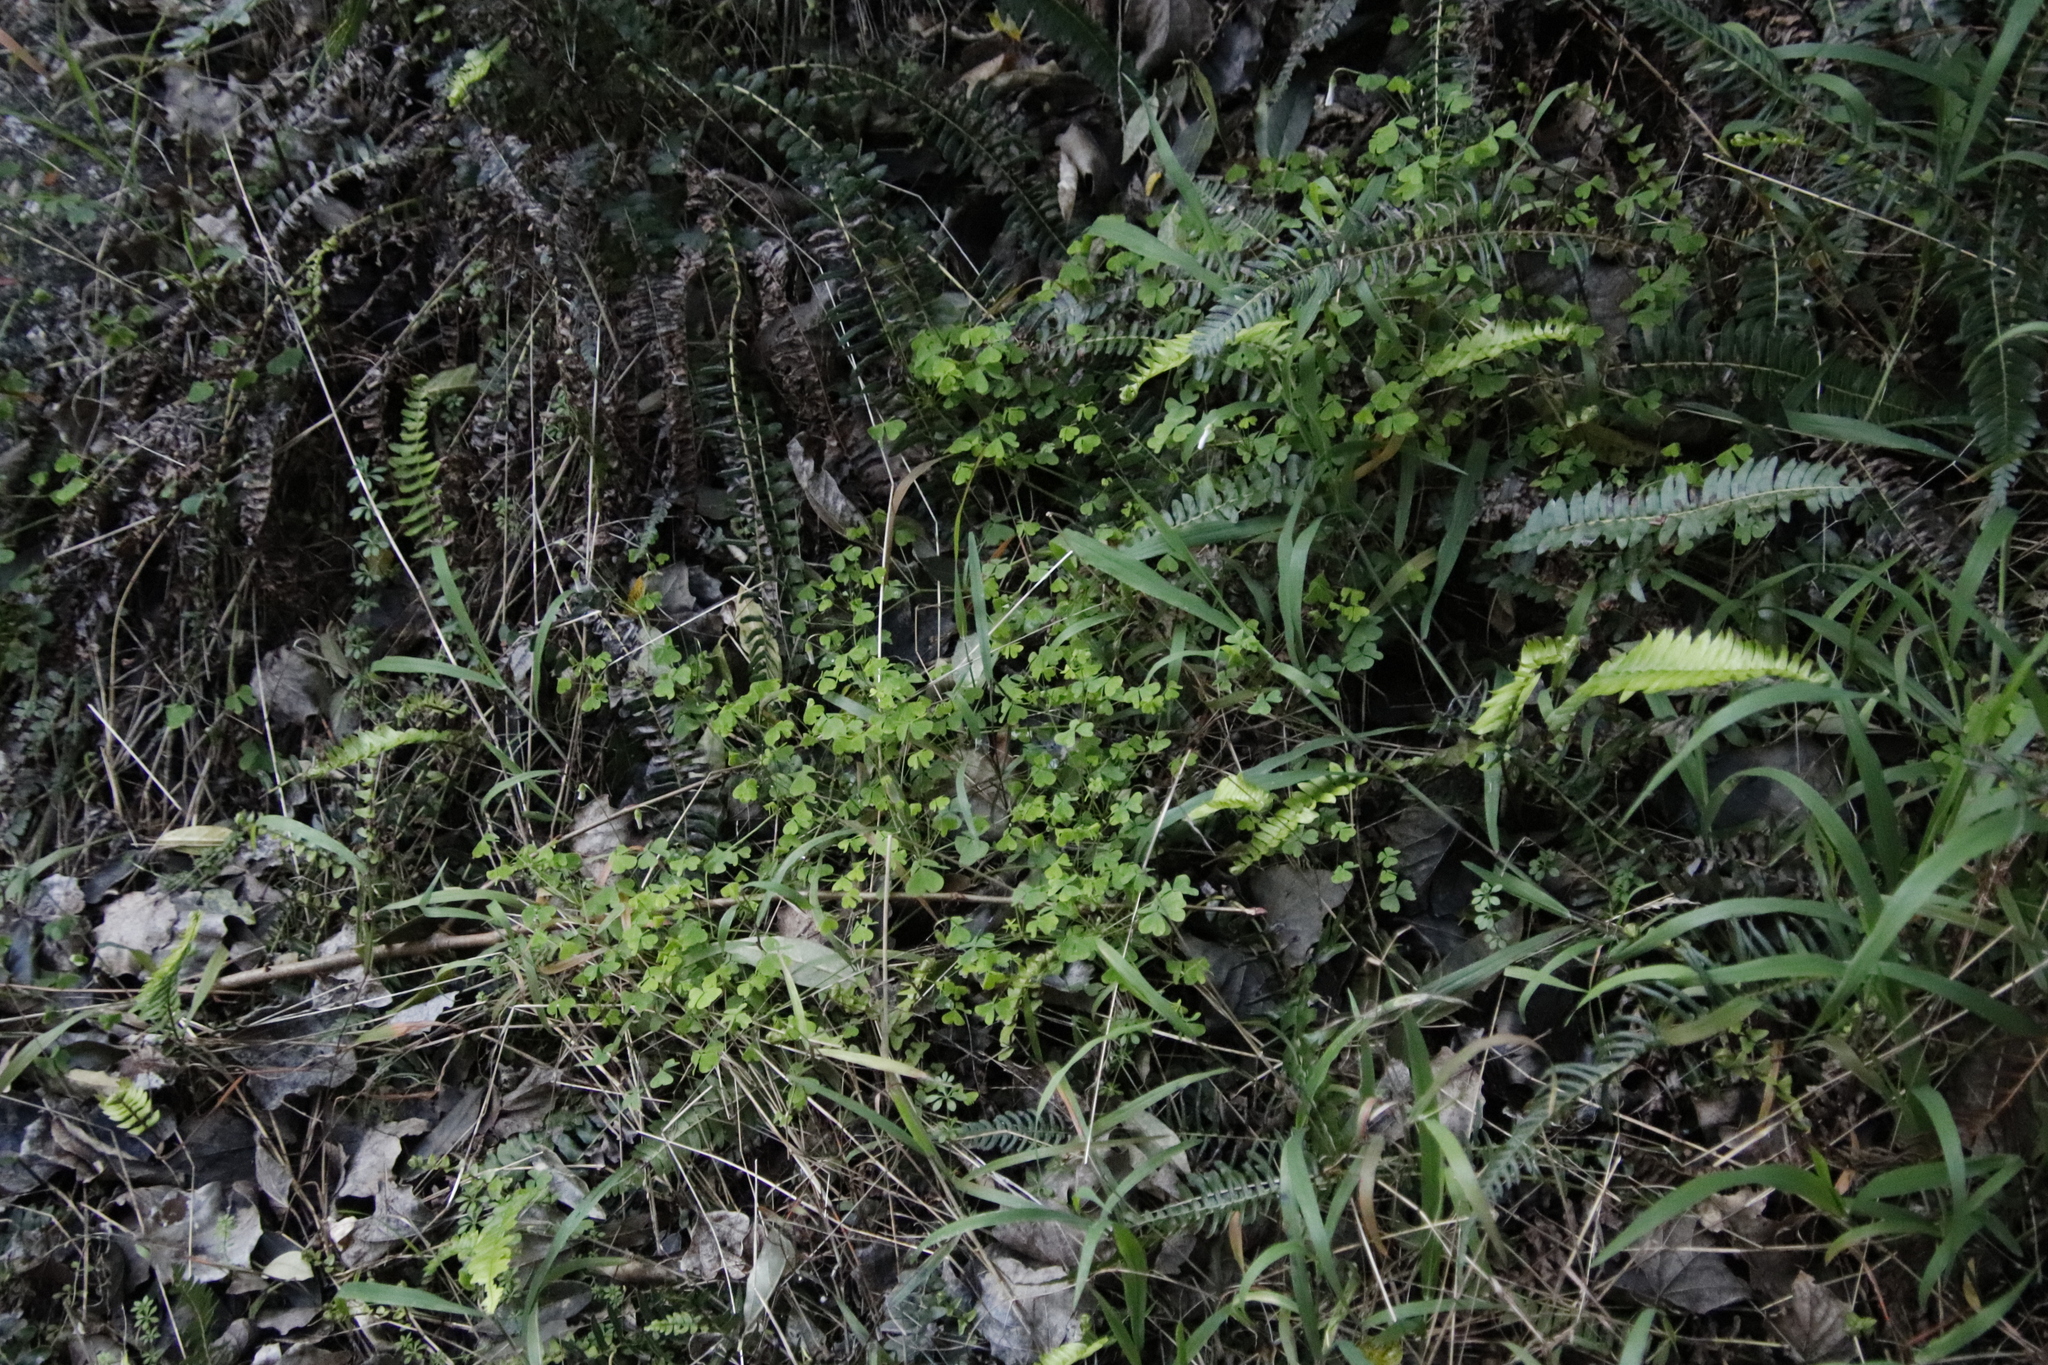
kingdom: Plantae
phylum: Tracheophyta
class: Polypodiopsida
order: Polypodiales
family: Blechnaceae
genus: Blechnum
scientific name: Blechnum punctulatum
